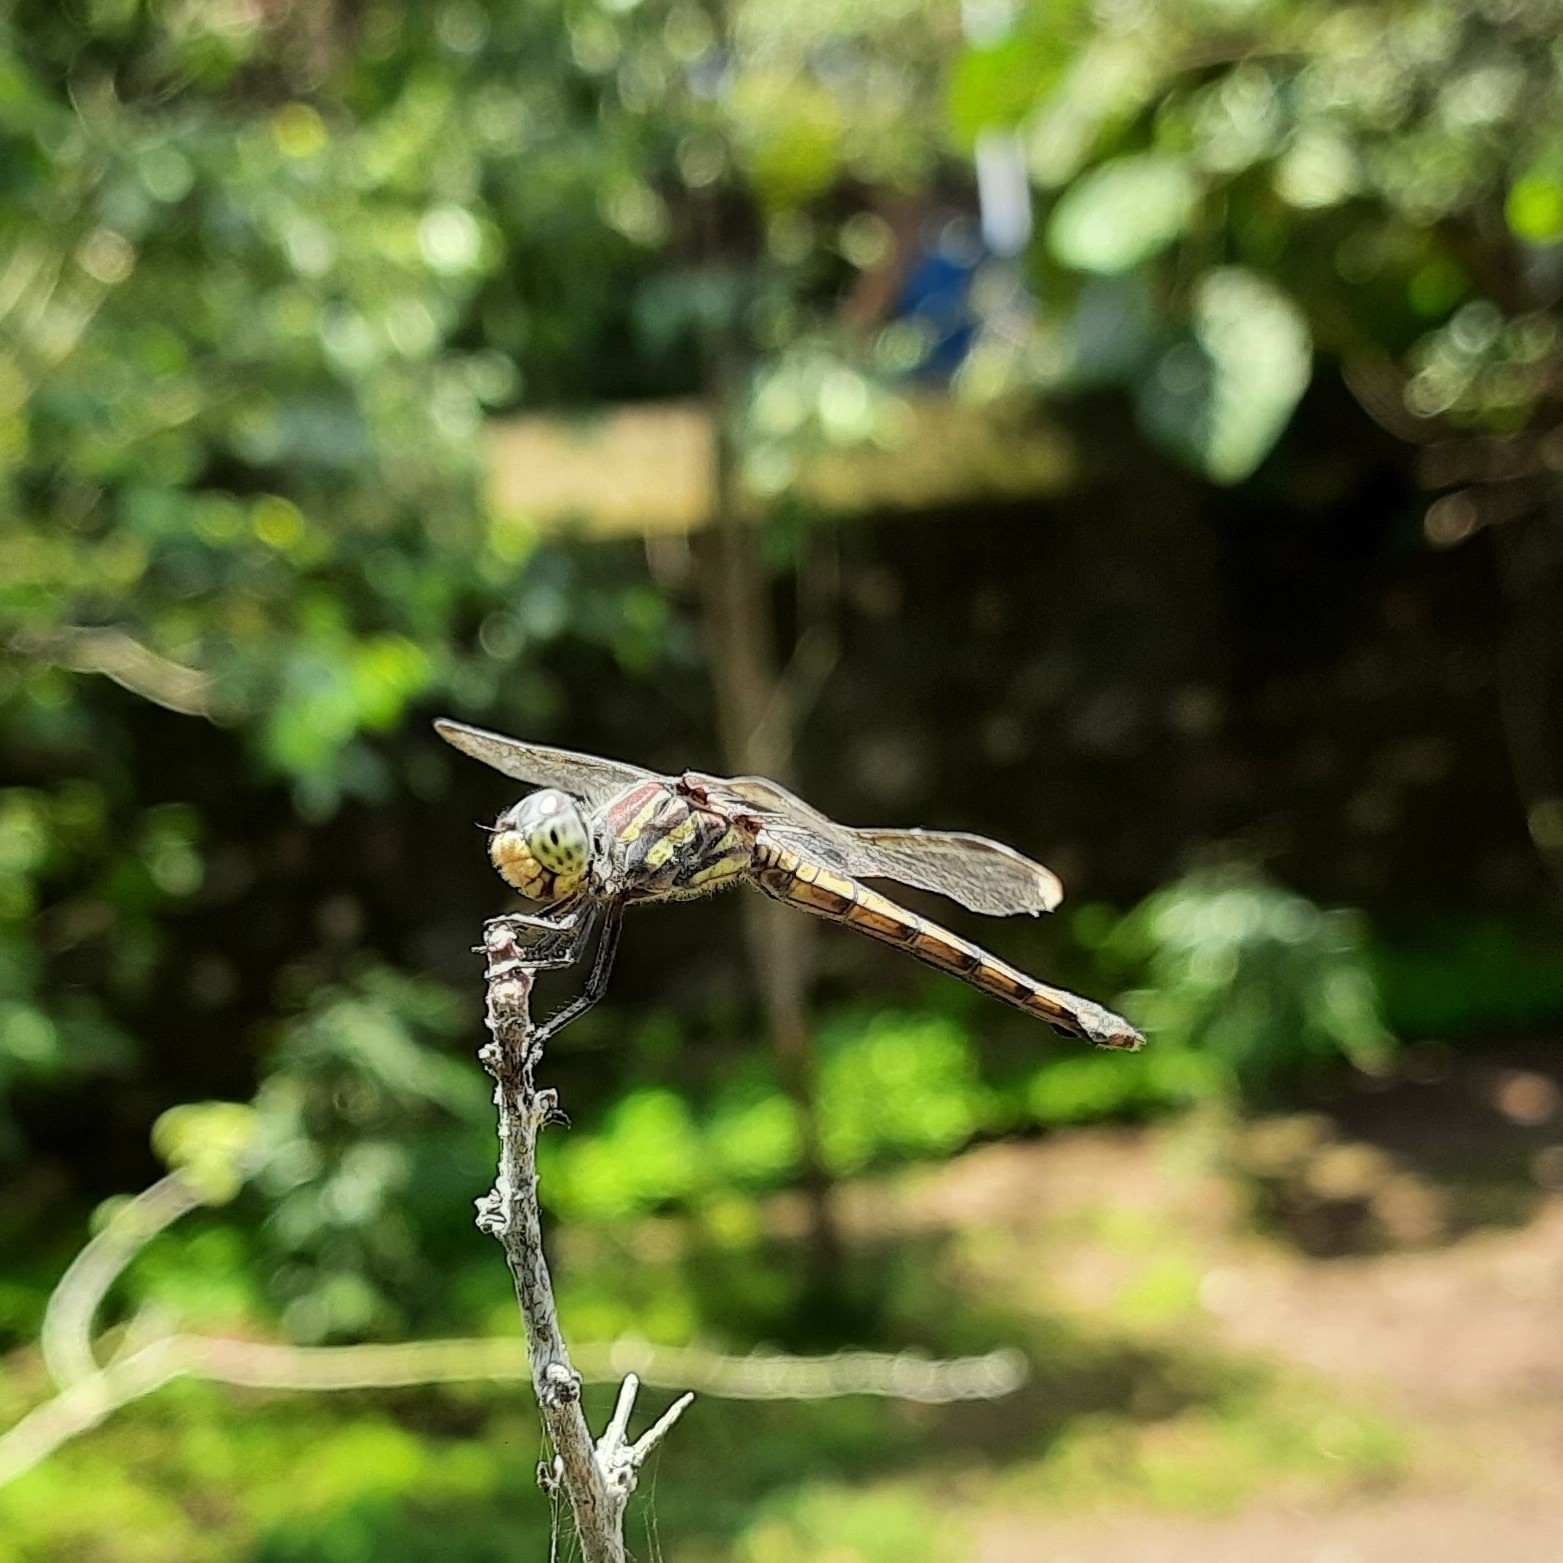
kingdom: Animalia
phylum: Arthropoda
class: Insecta
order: Odonata
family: Libellulidae
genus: Potamarcha
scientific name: Potamarcha congener
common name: Blue chaser
